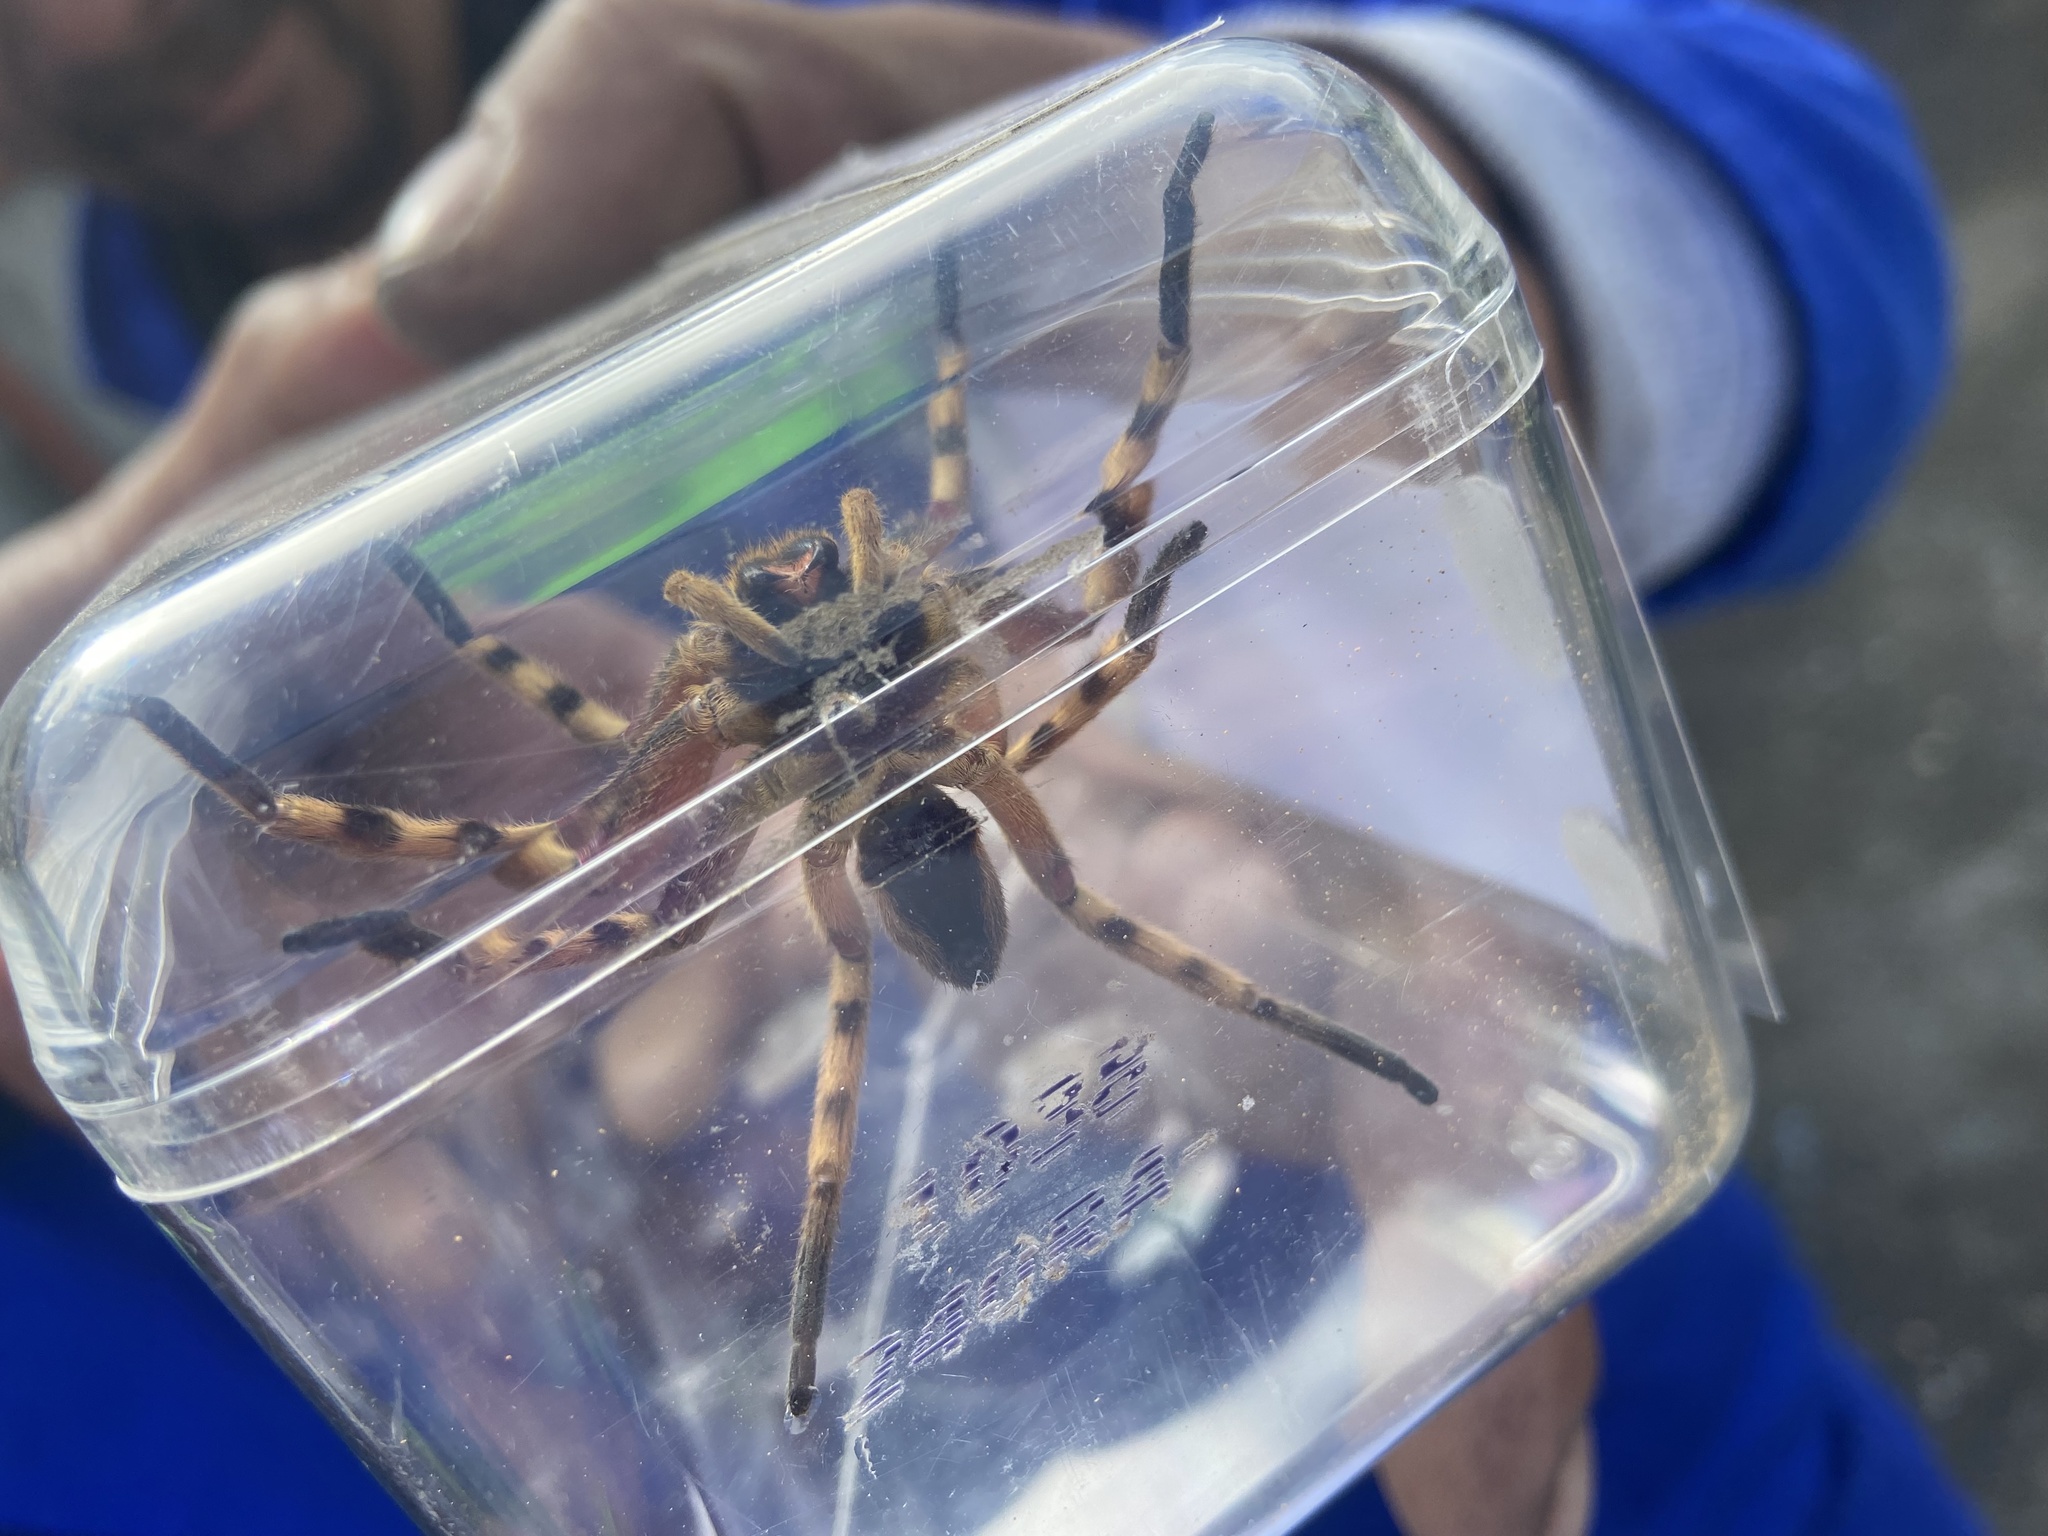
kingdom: Animalia
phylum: Arthropoda
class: Arachnida
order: Araneae
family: Sparassidae
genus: Palystes
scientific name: Palystes castaneus
